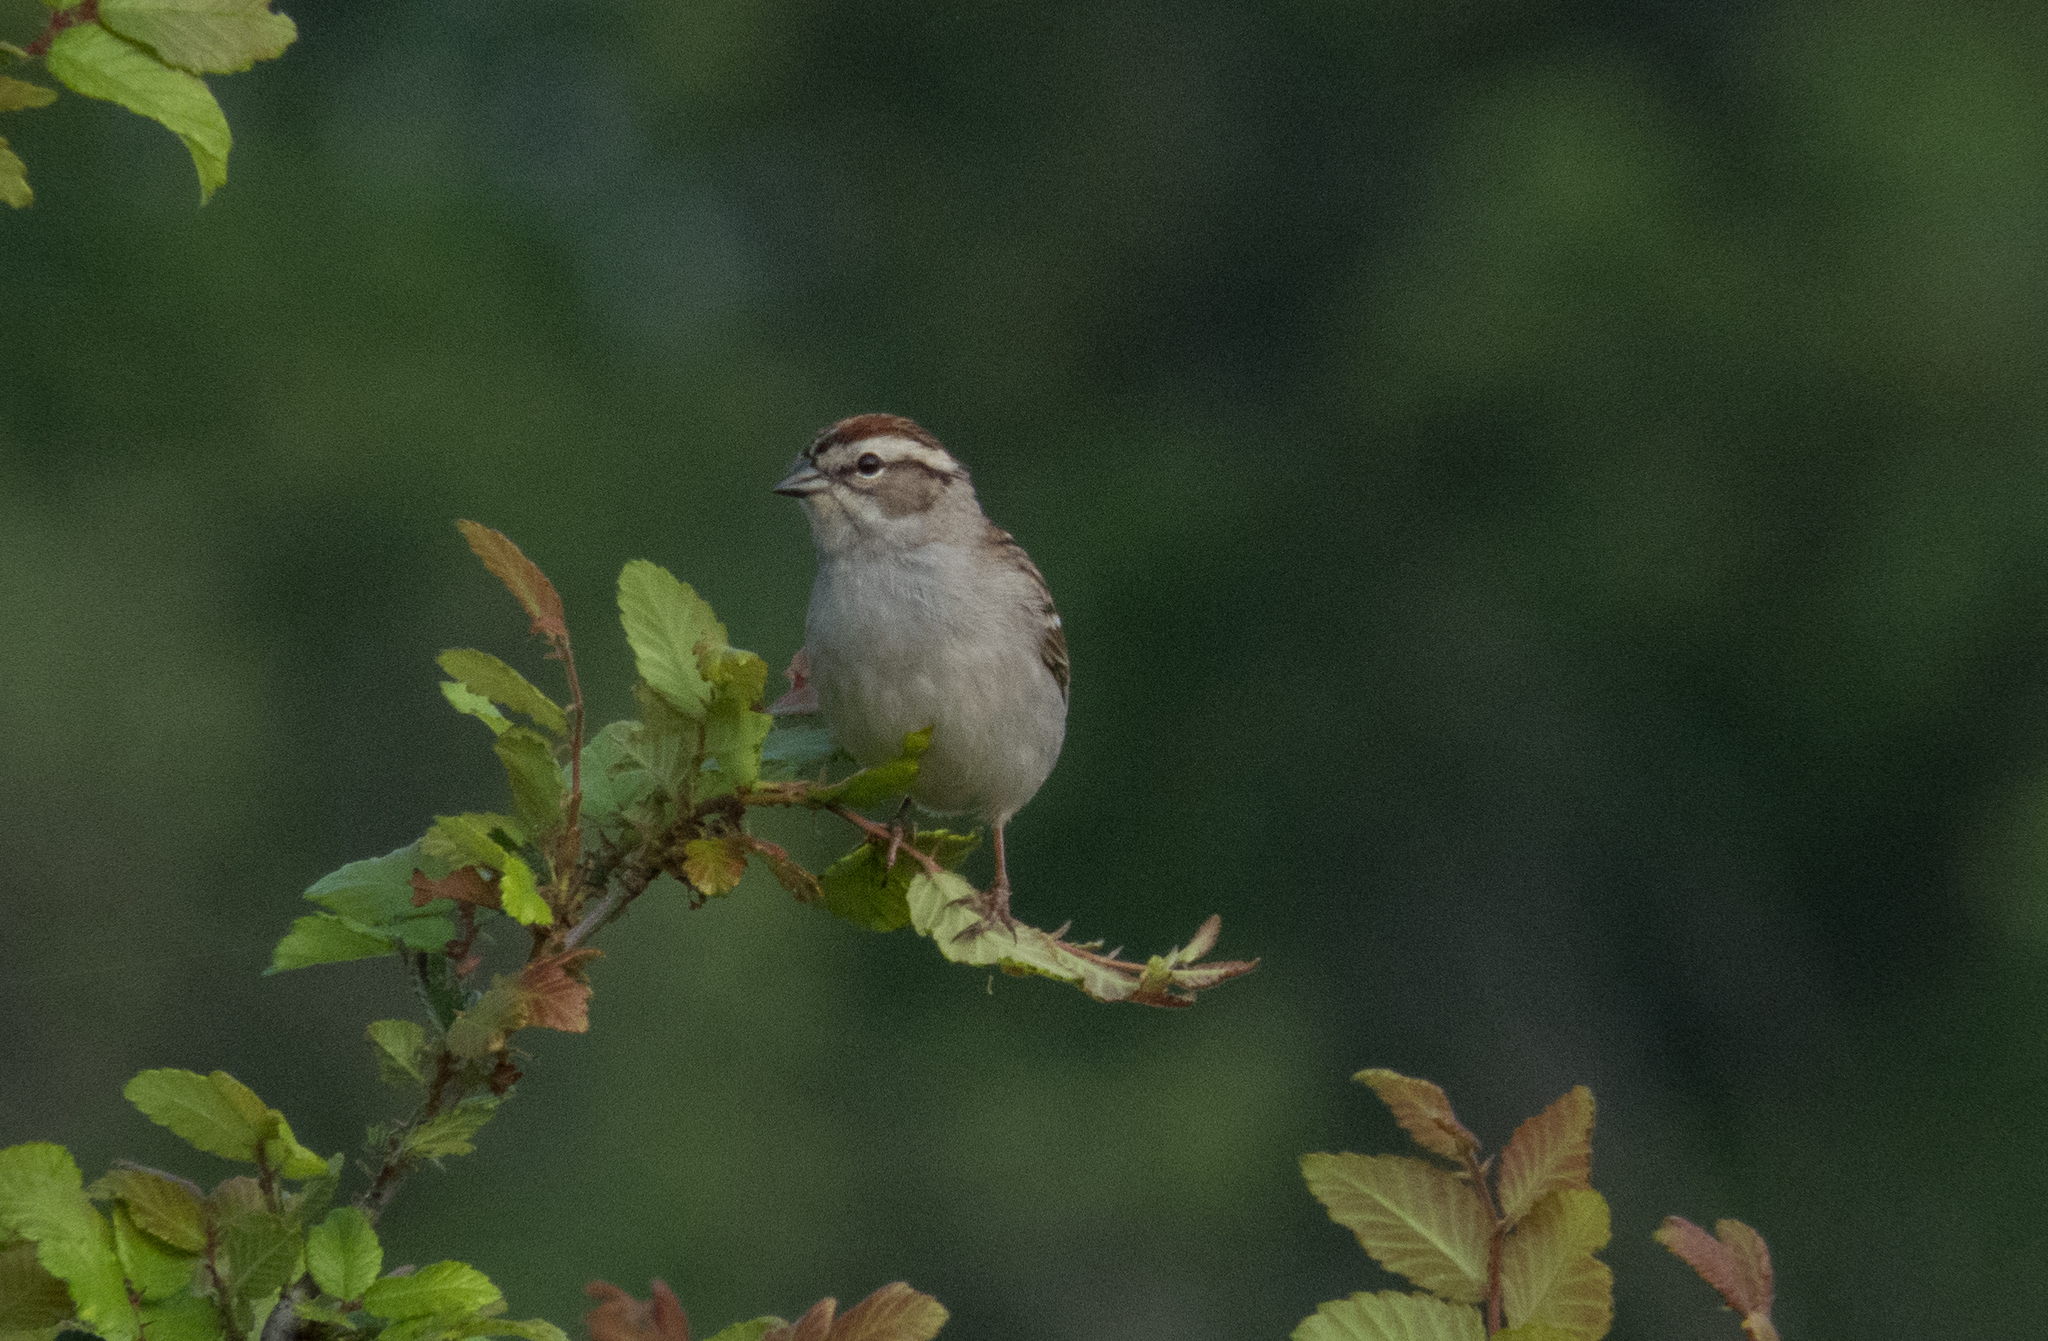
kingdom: Animalia
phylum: Chordata
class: Aves
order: Passeriformes
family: Passerellidae
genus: Spizella
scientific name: Spizella passerina
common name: Chipping sparrow
